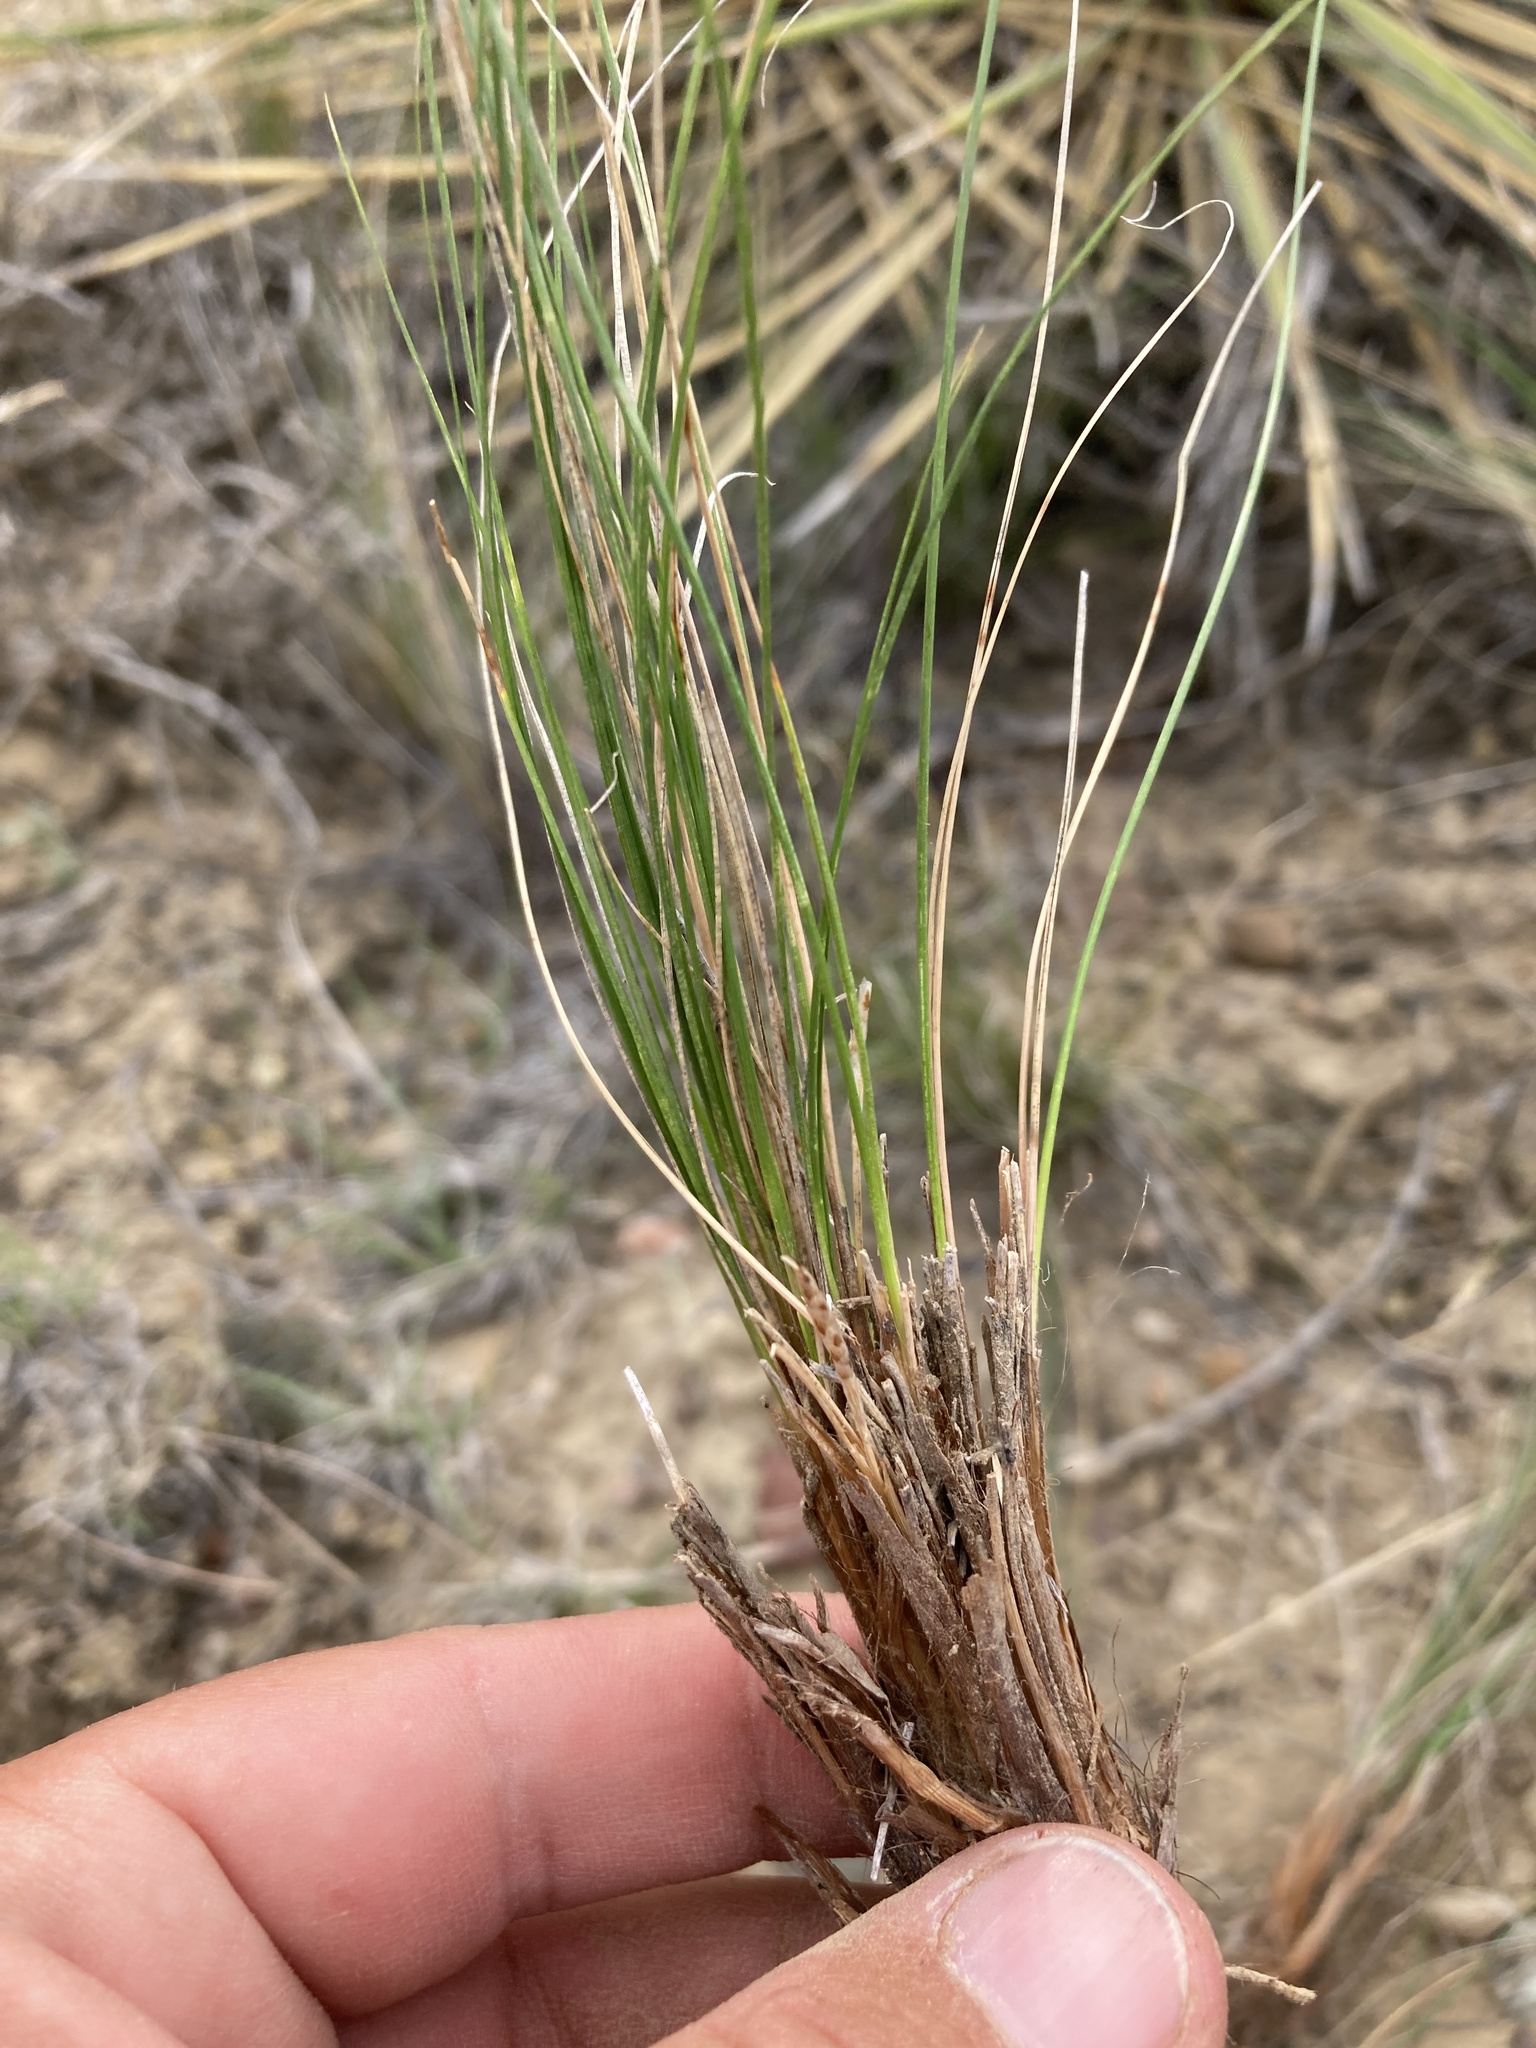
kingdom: Plantae
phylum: Tracheophyta
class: Liliopsida
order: Poales
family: Cyperaceae
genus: Carex
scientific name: Carex filifolia
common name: Threadleaf sedge
